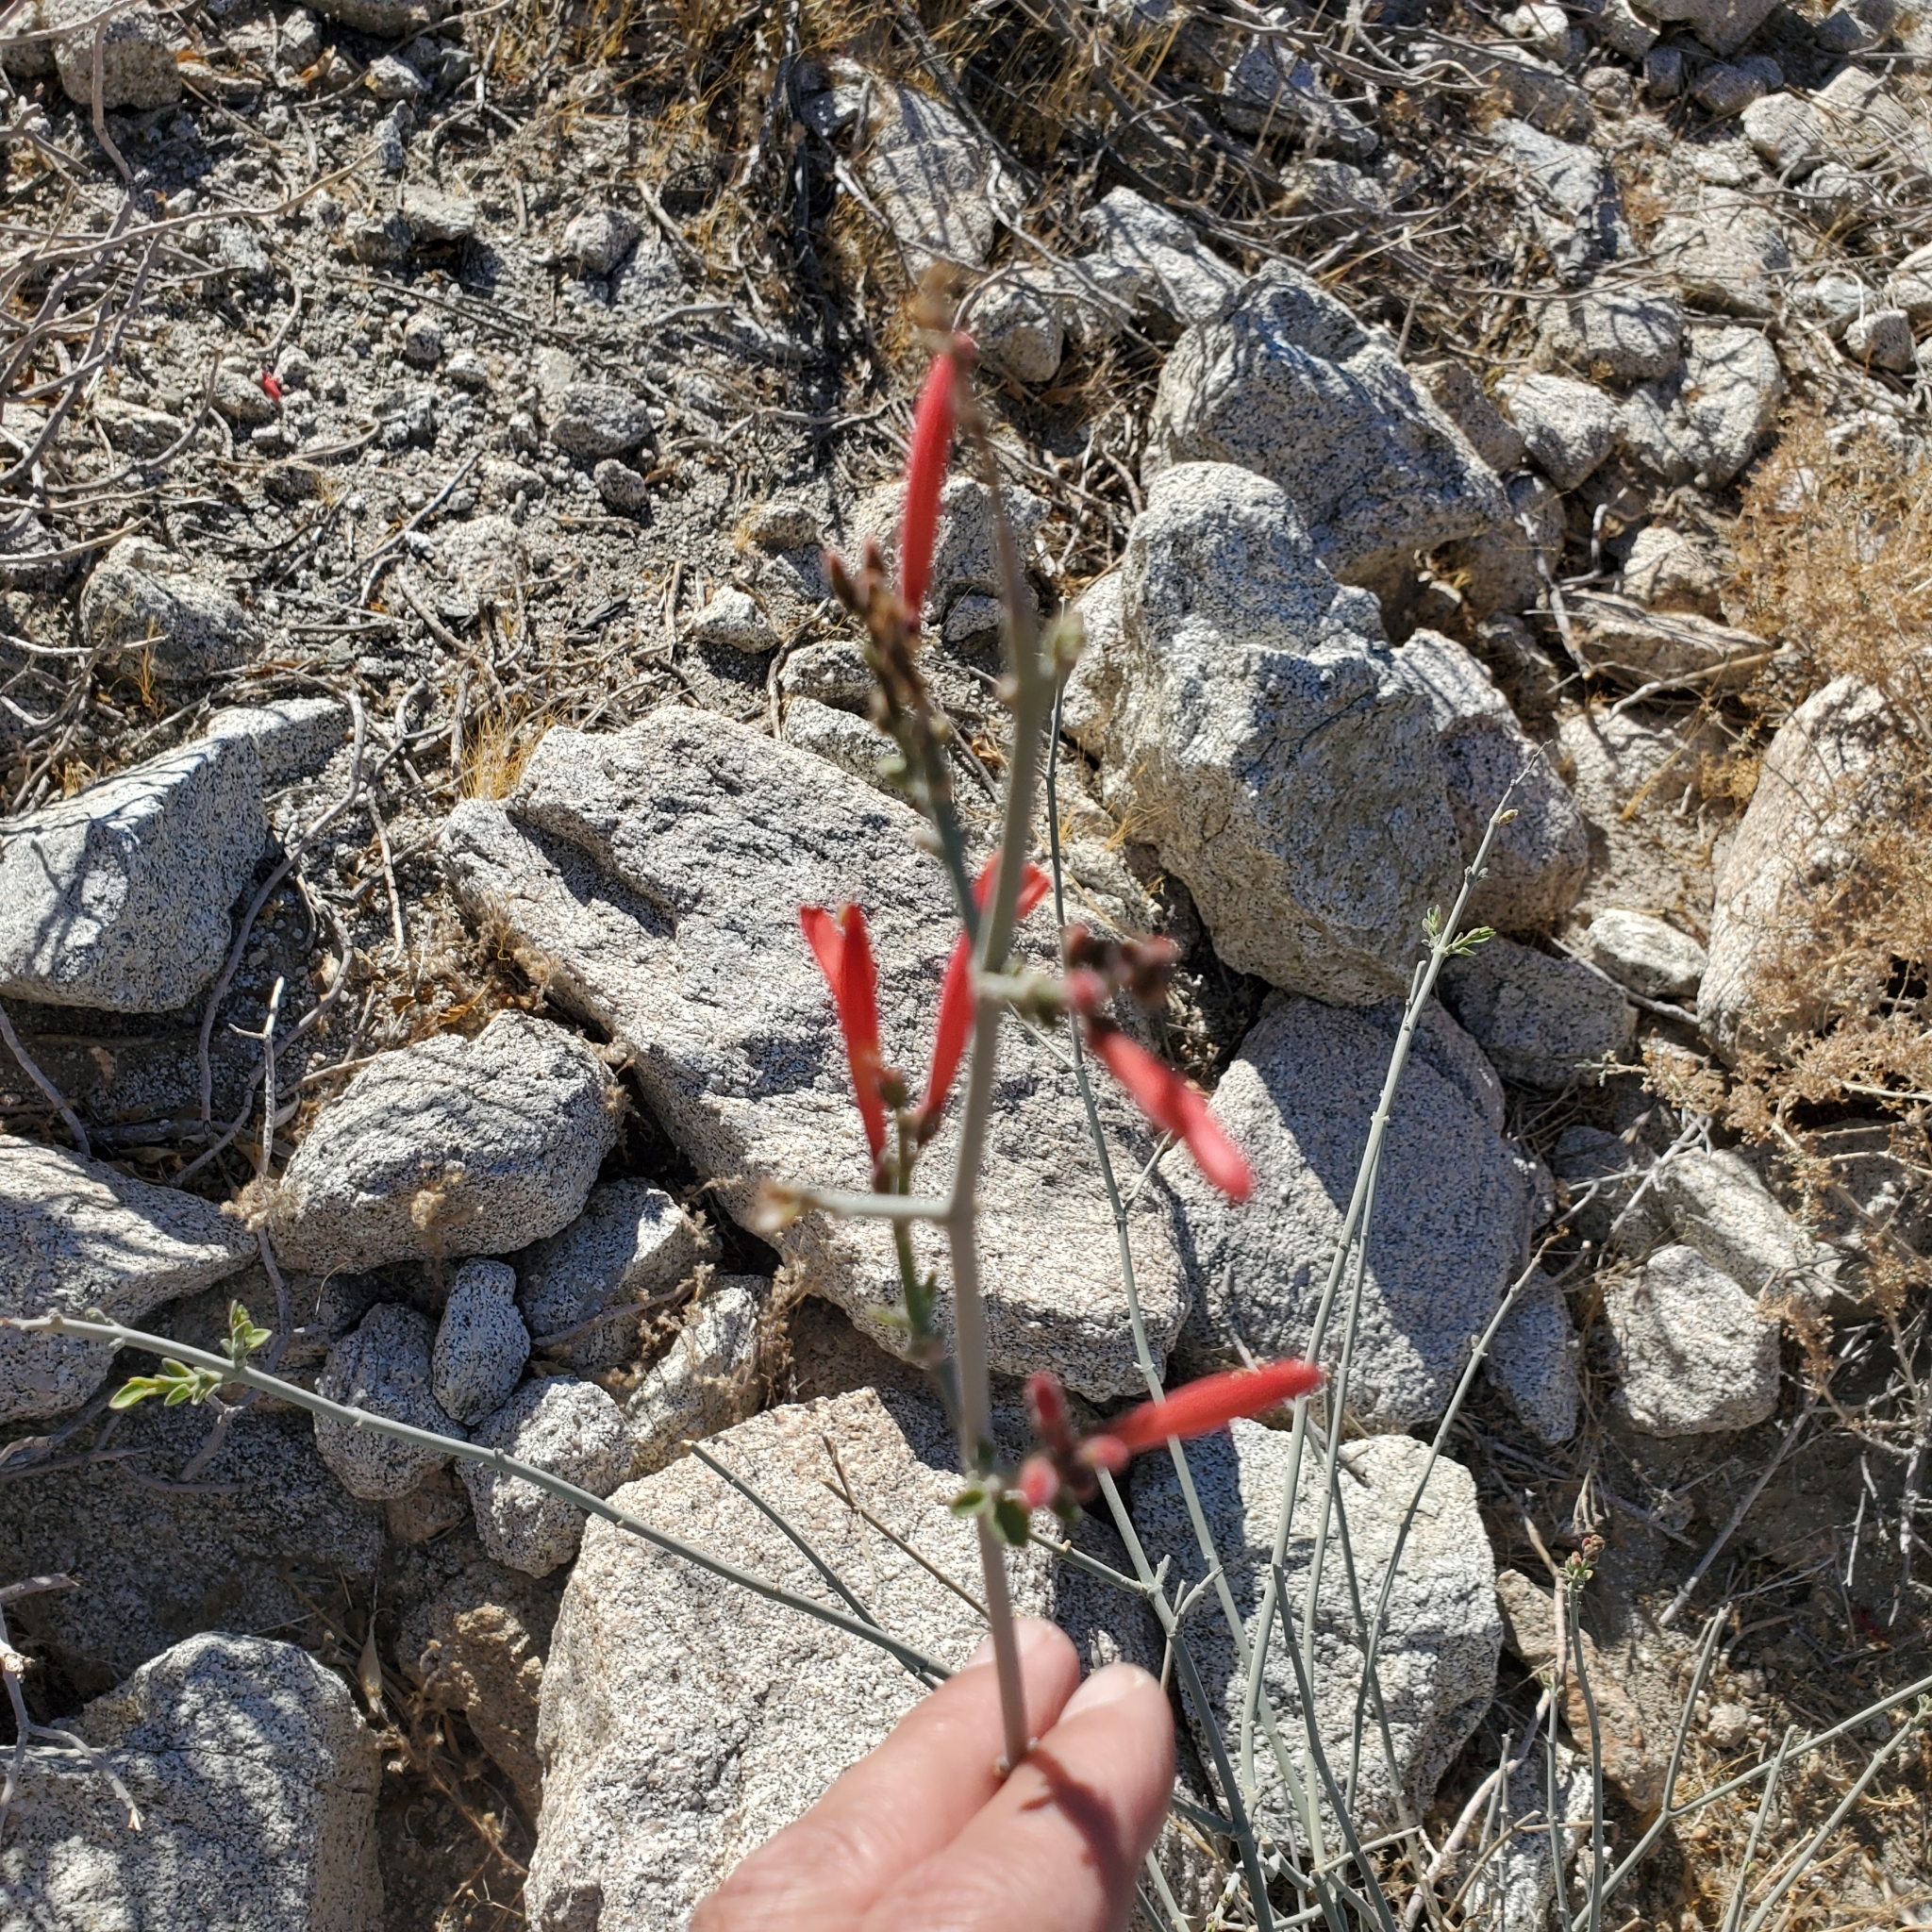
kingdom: Plantae
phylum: Tracheophyta
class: Magnoliopsida
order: Lamiales
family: Acanthaceae
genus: Justicia
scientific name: Justicia californica
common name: Chuparosa-honeysuckle
